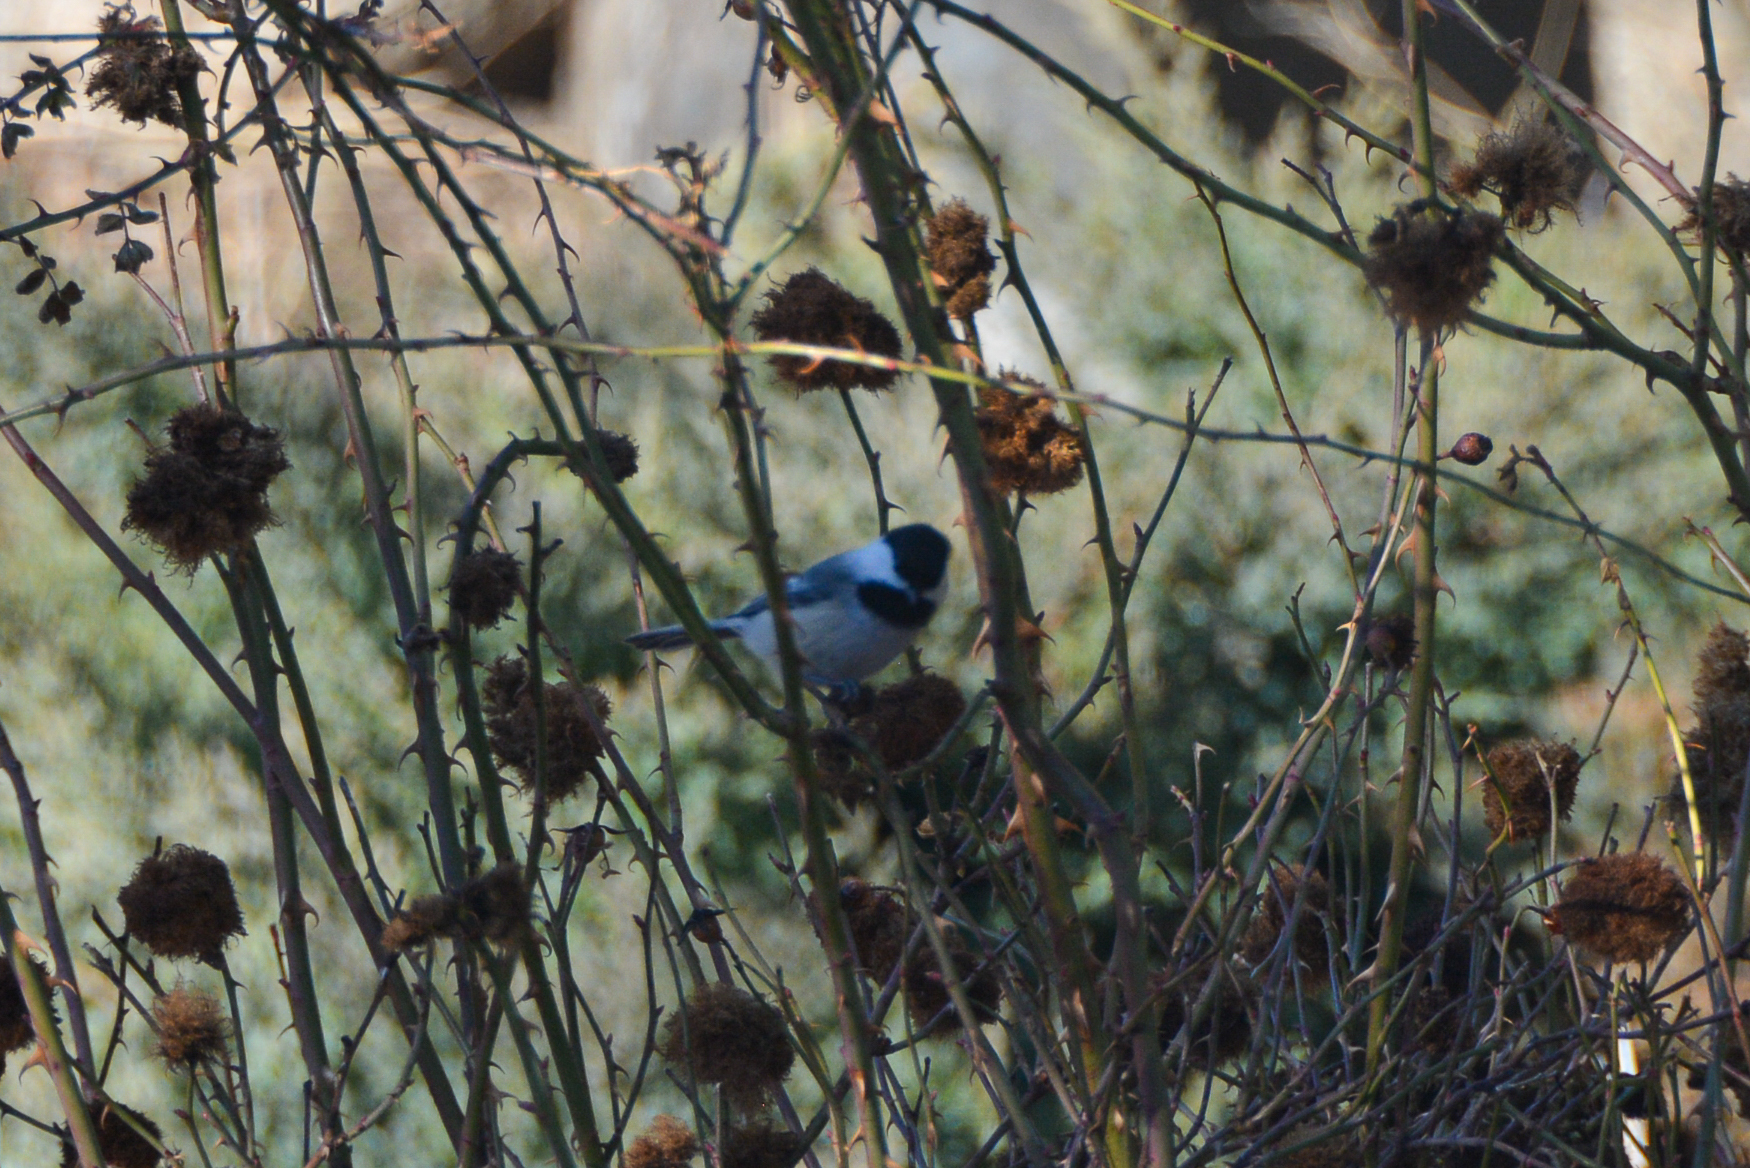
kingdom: Animalia
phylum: Chordata
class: Aves
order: Passeriformes
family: Paridae
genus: Poecile
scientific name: Poecile atricapillus
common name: Black-capped chickadee
